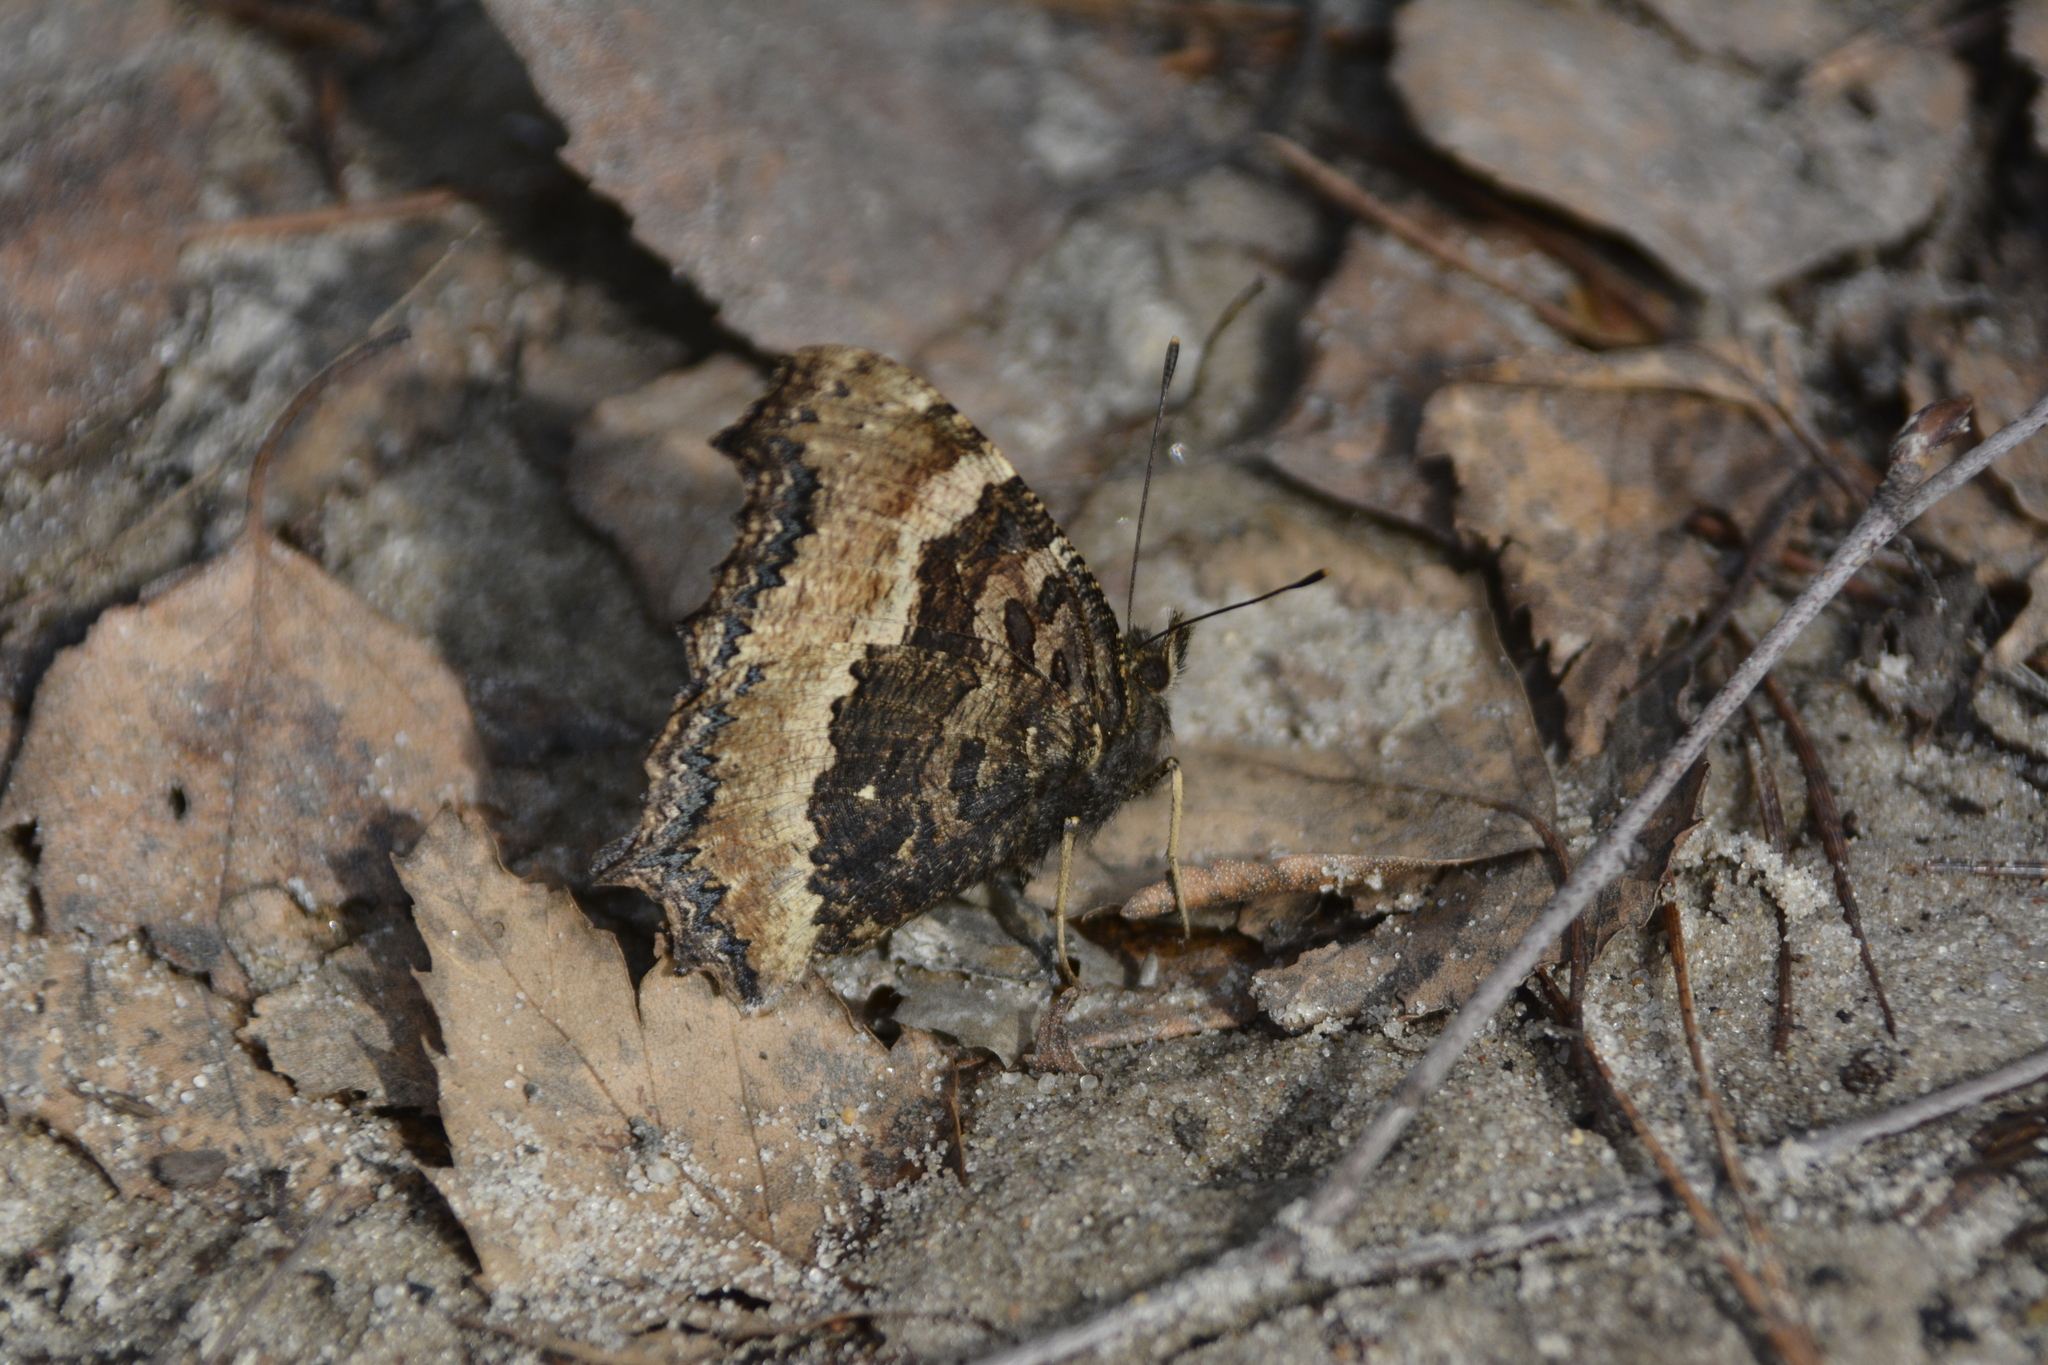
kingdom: Animalia
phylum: Arthropoda
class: Insecta
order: Lepidoptera
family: Nymphalidae
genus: Nymphalis
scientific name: Nymphalis xanthomelas
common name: Scarce tortoiseshell
